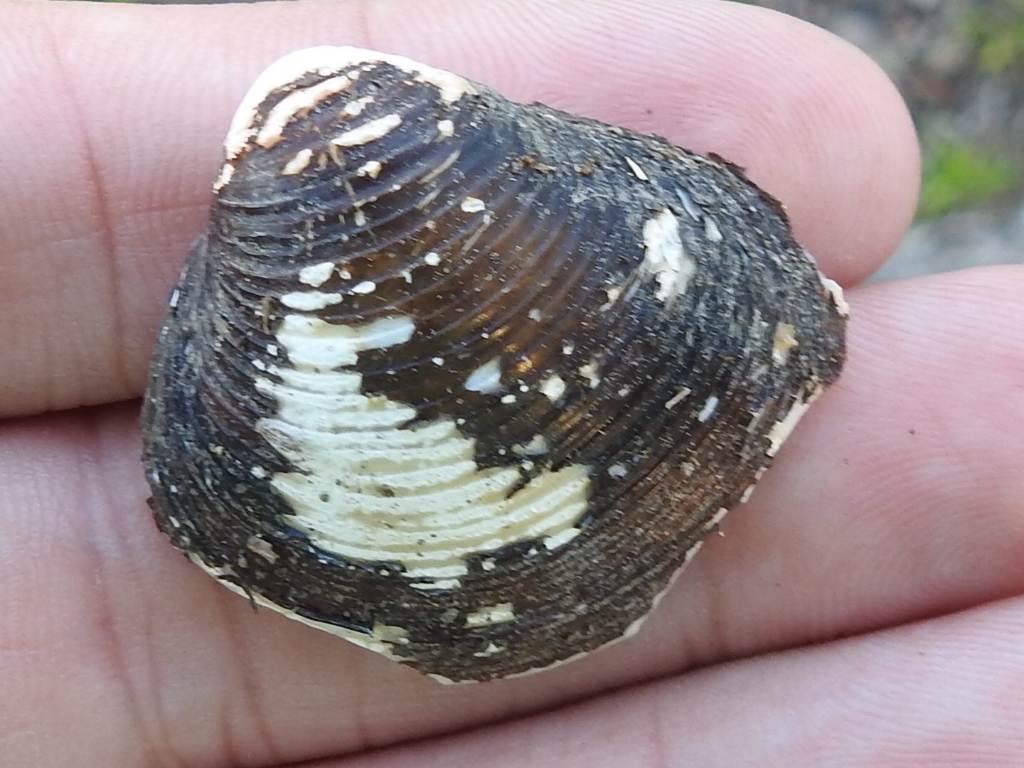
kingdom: Animalia
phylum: Mollusca
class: Bivalvia
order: Venerida
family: Cyrenidae
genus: Corbicula
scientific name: Corbicula fluminea
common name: Asian clam
